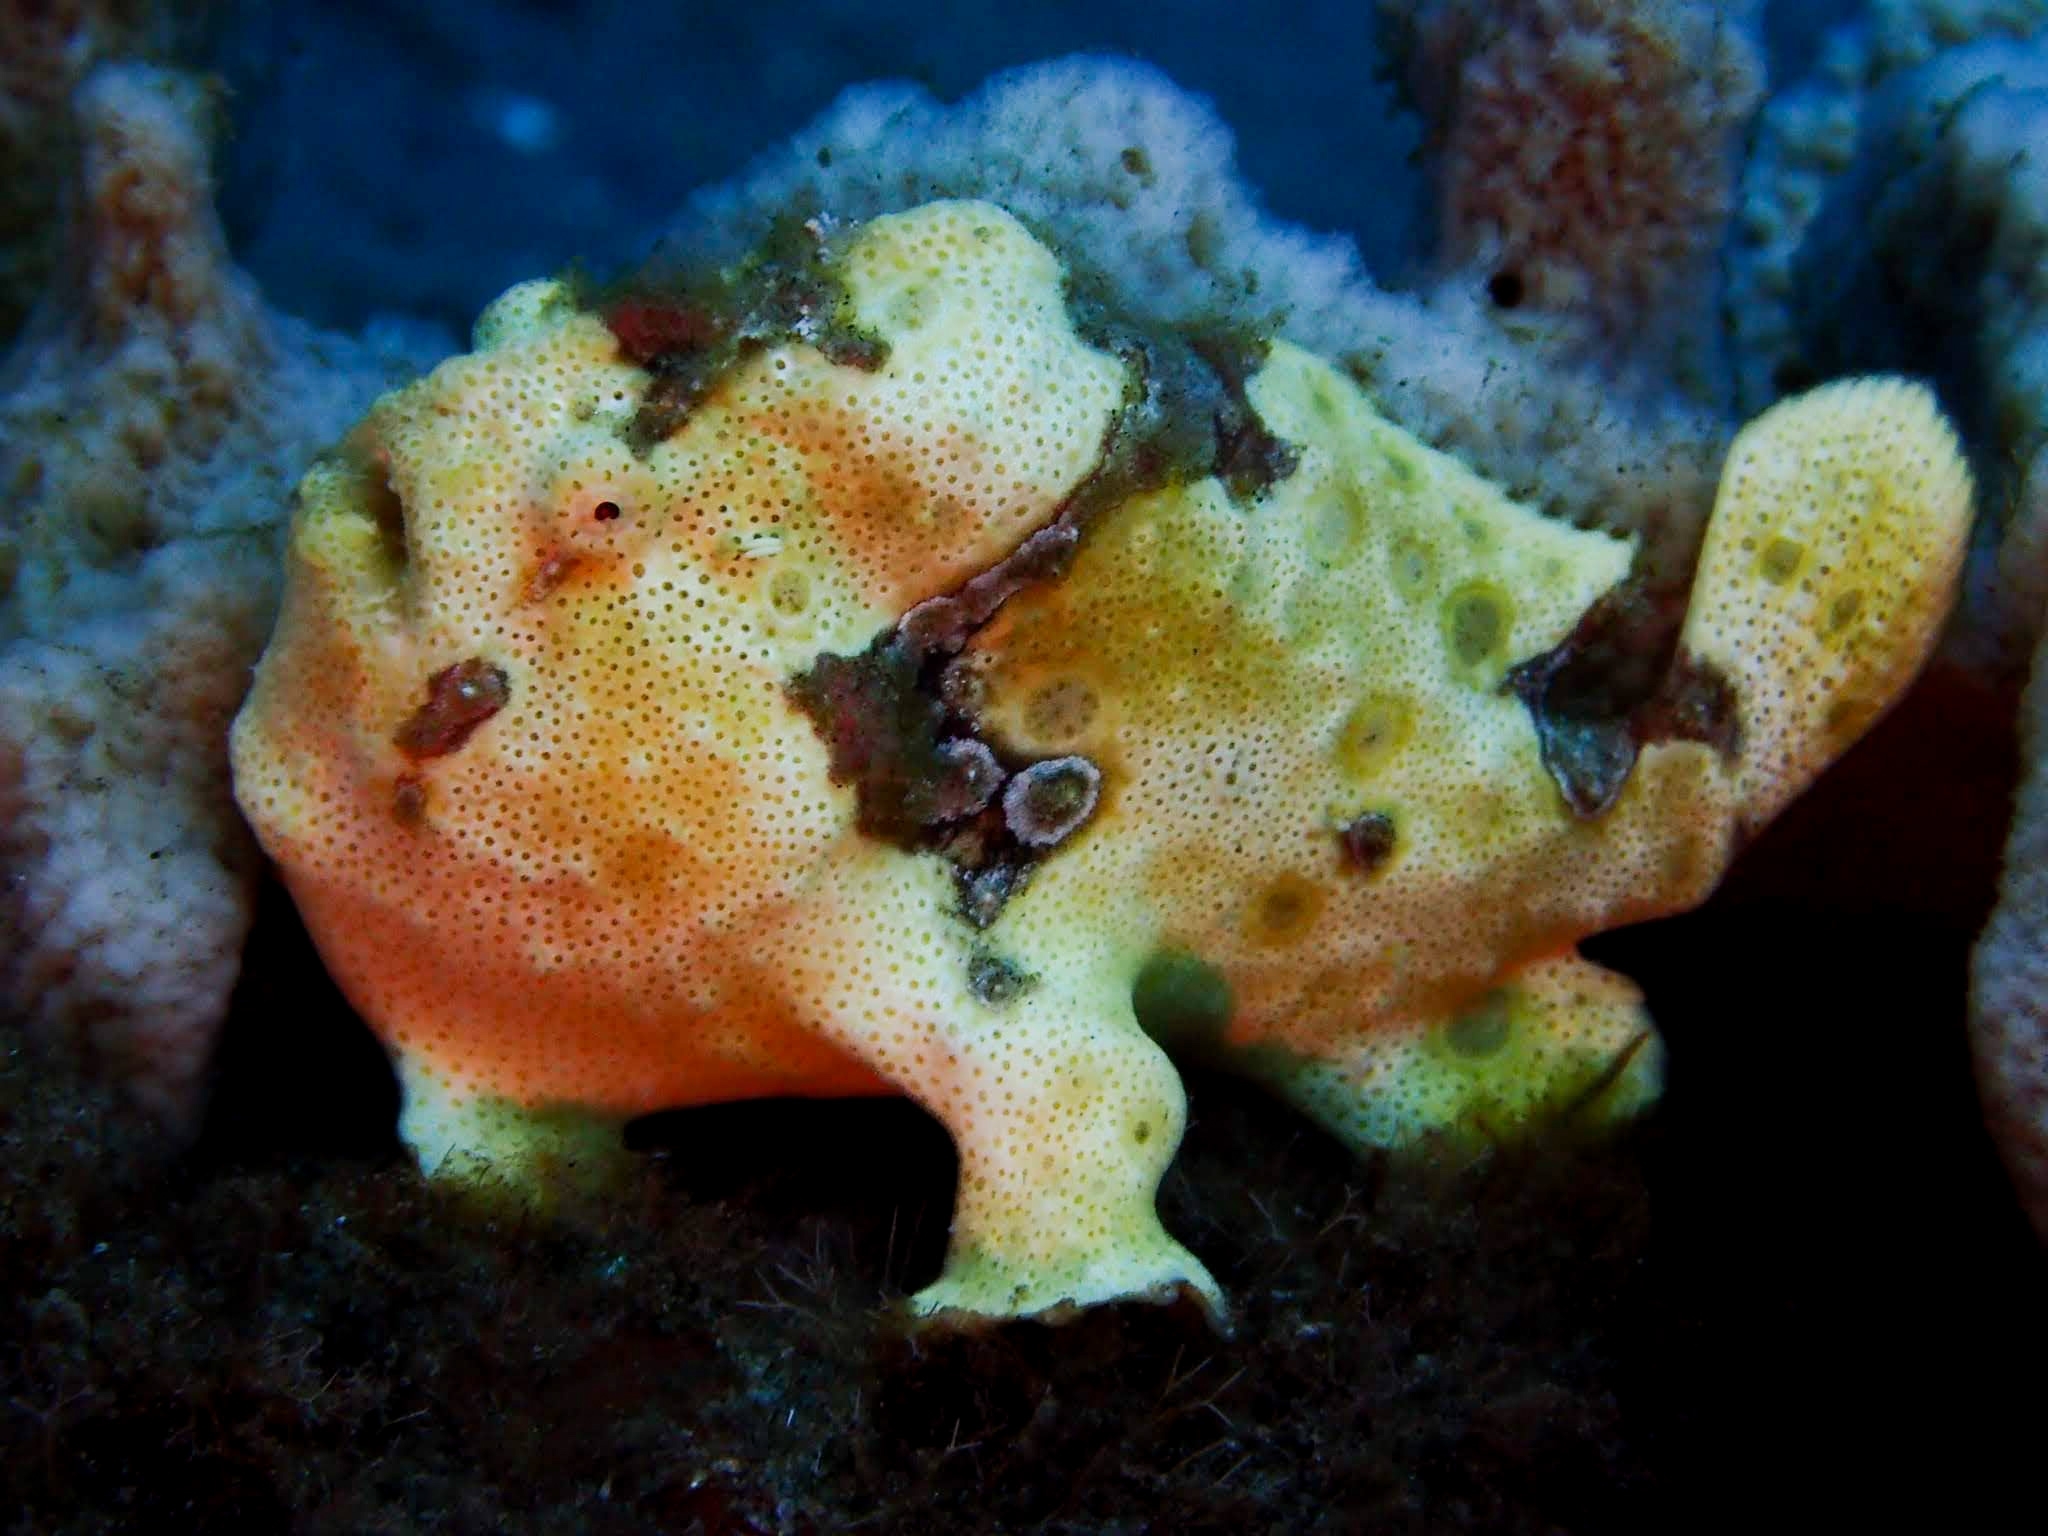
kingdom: Animalia
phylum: Chordata
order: Lophiiformes
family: Antennariidae
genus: Antennarius
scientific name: Antennarius pictus
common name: Painted frogfish
